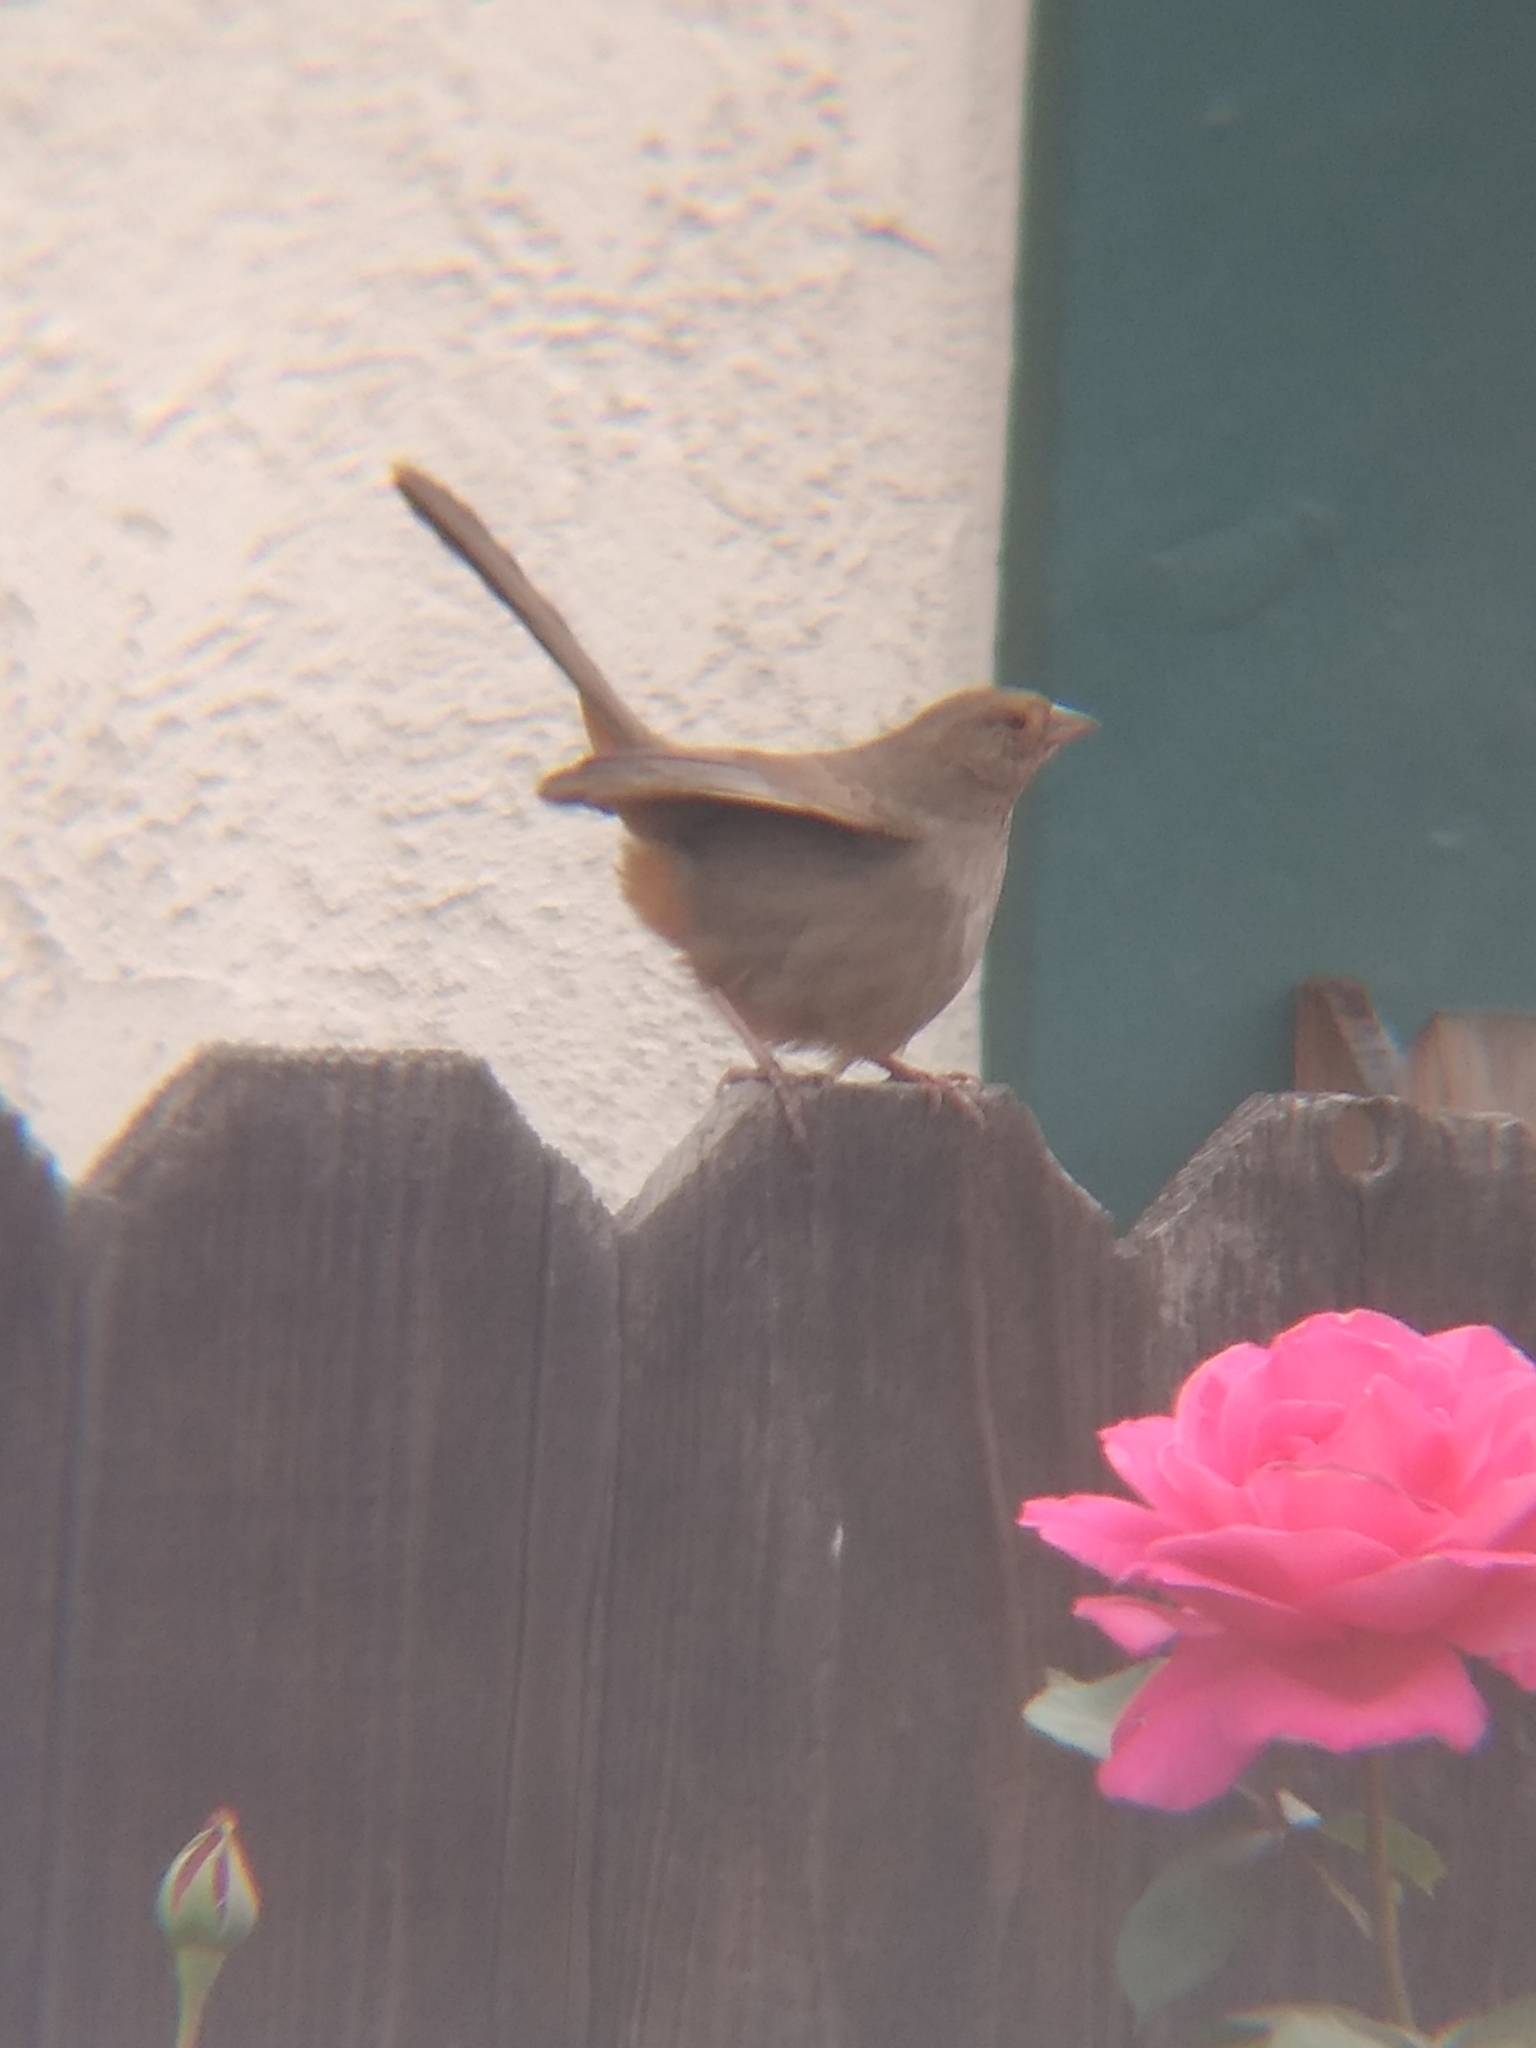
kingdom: Animalia
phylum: Chordata
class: Aves
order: Passeriformes
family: Passerellidae
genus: Melozone
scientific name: Melozone crissalis
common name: California towhee
